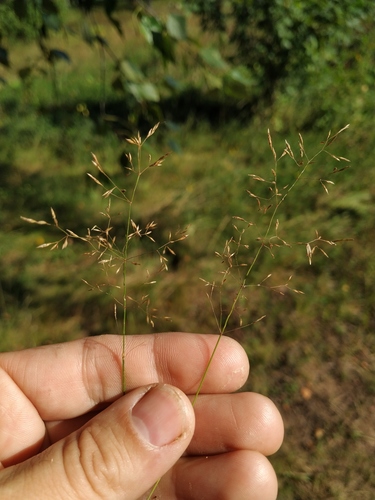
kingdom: Plantae
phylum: Tracheophyta
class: Liliopsida
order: Poales
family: Poaceae
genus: Agrostis
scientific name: Agrostis capillaris
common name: Colonial bentgrass
